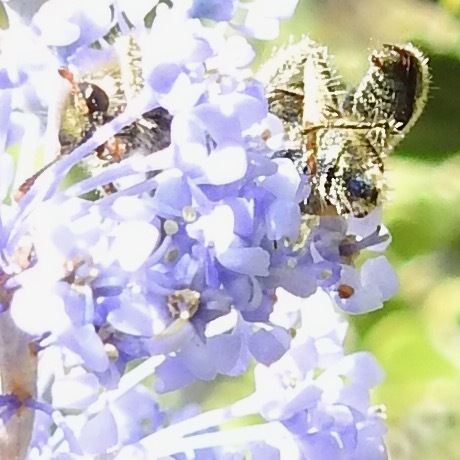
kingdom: Animalia
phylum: Arthropoda
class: Insecta
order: Coleoptera
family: Cleridae
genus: Trichodes
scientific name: Trichodes ornatus
